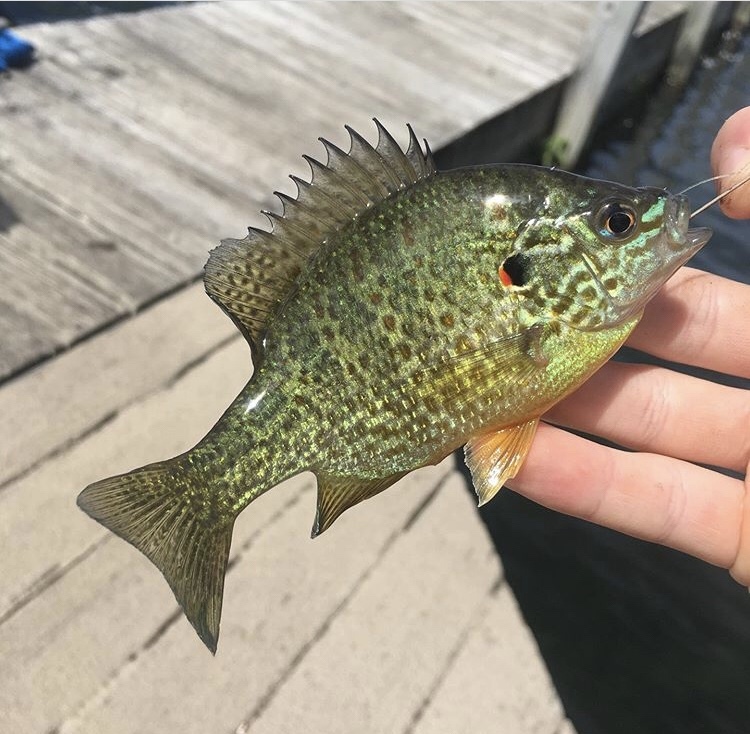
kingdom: Animalia
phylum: Chordata
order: Perciformes
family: Centrarchidae
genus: Lepomis
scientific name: Lepomis gibbosus
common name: Pumpkinseed
